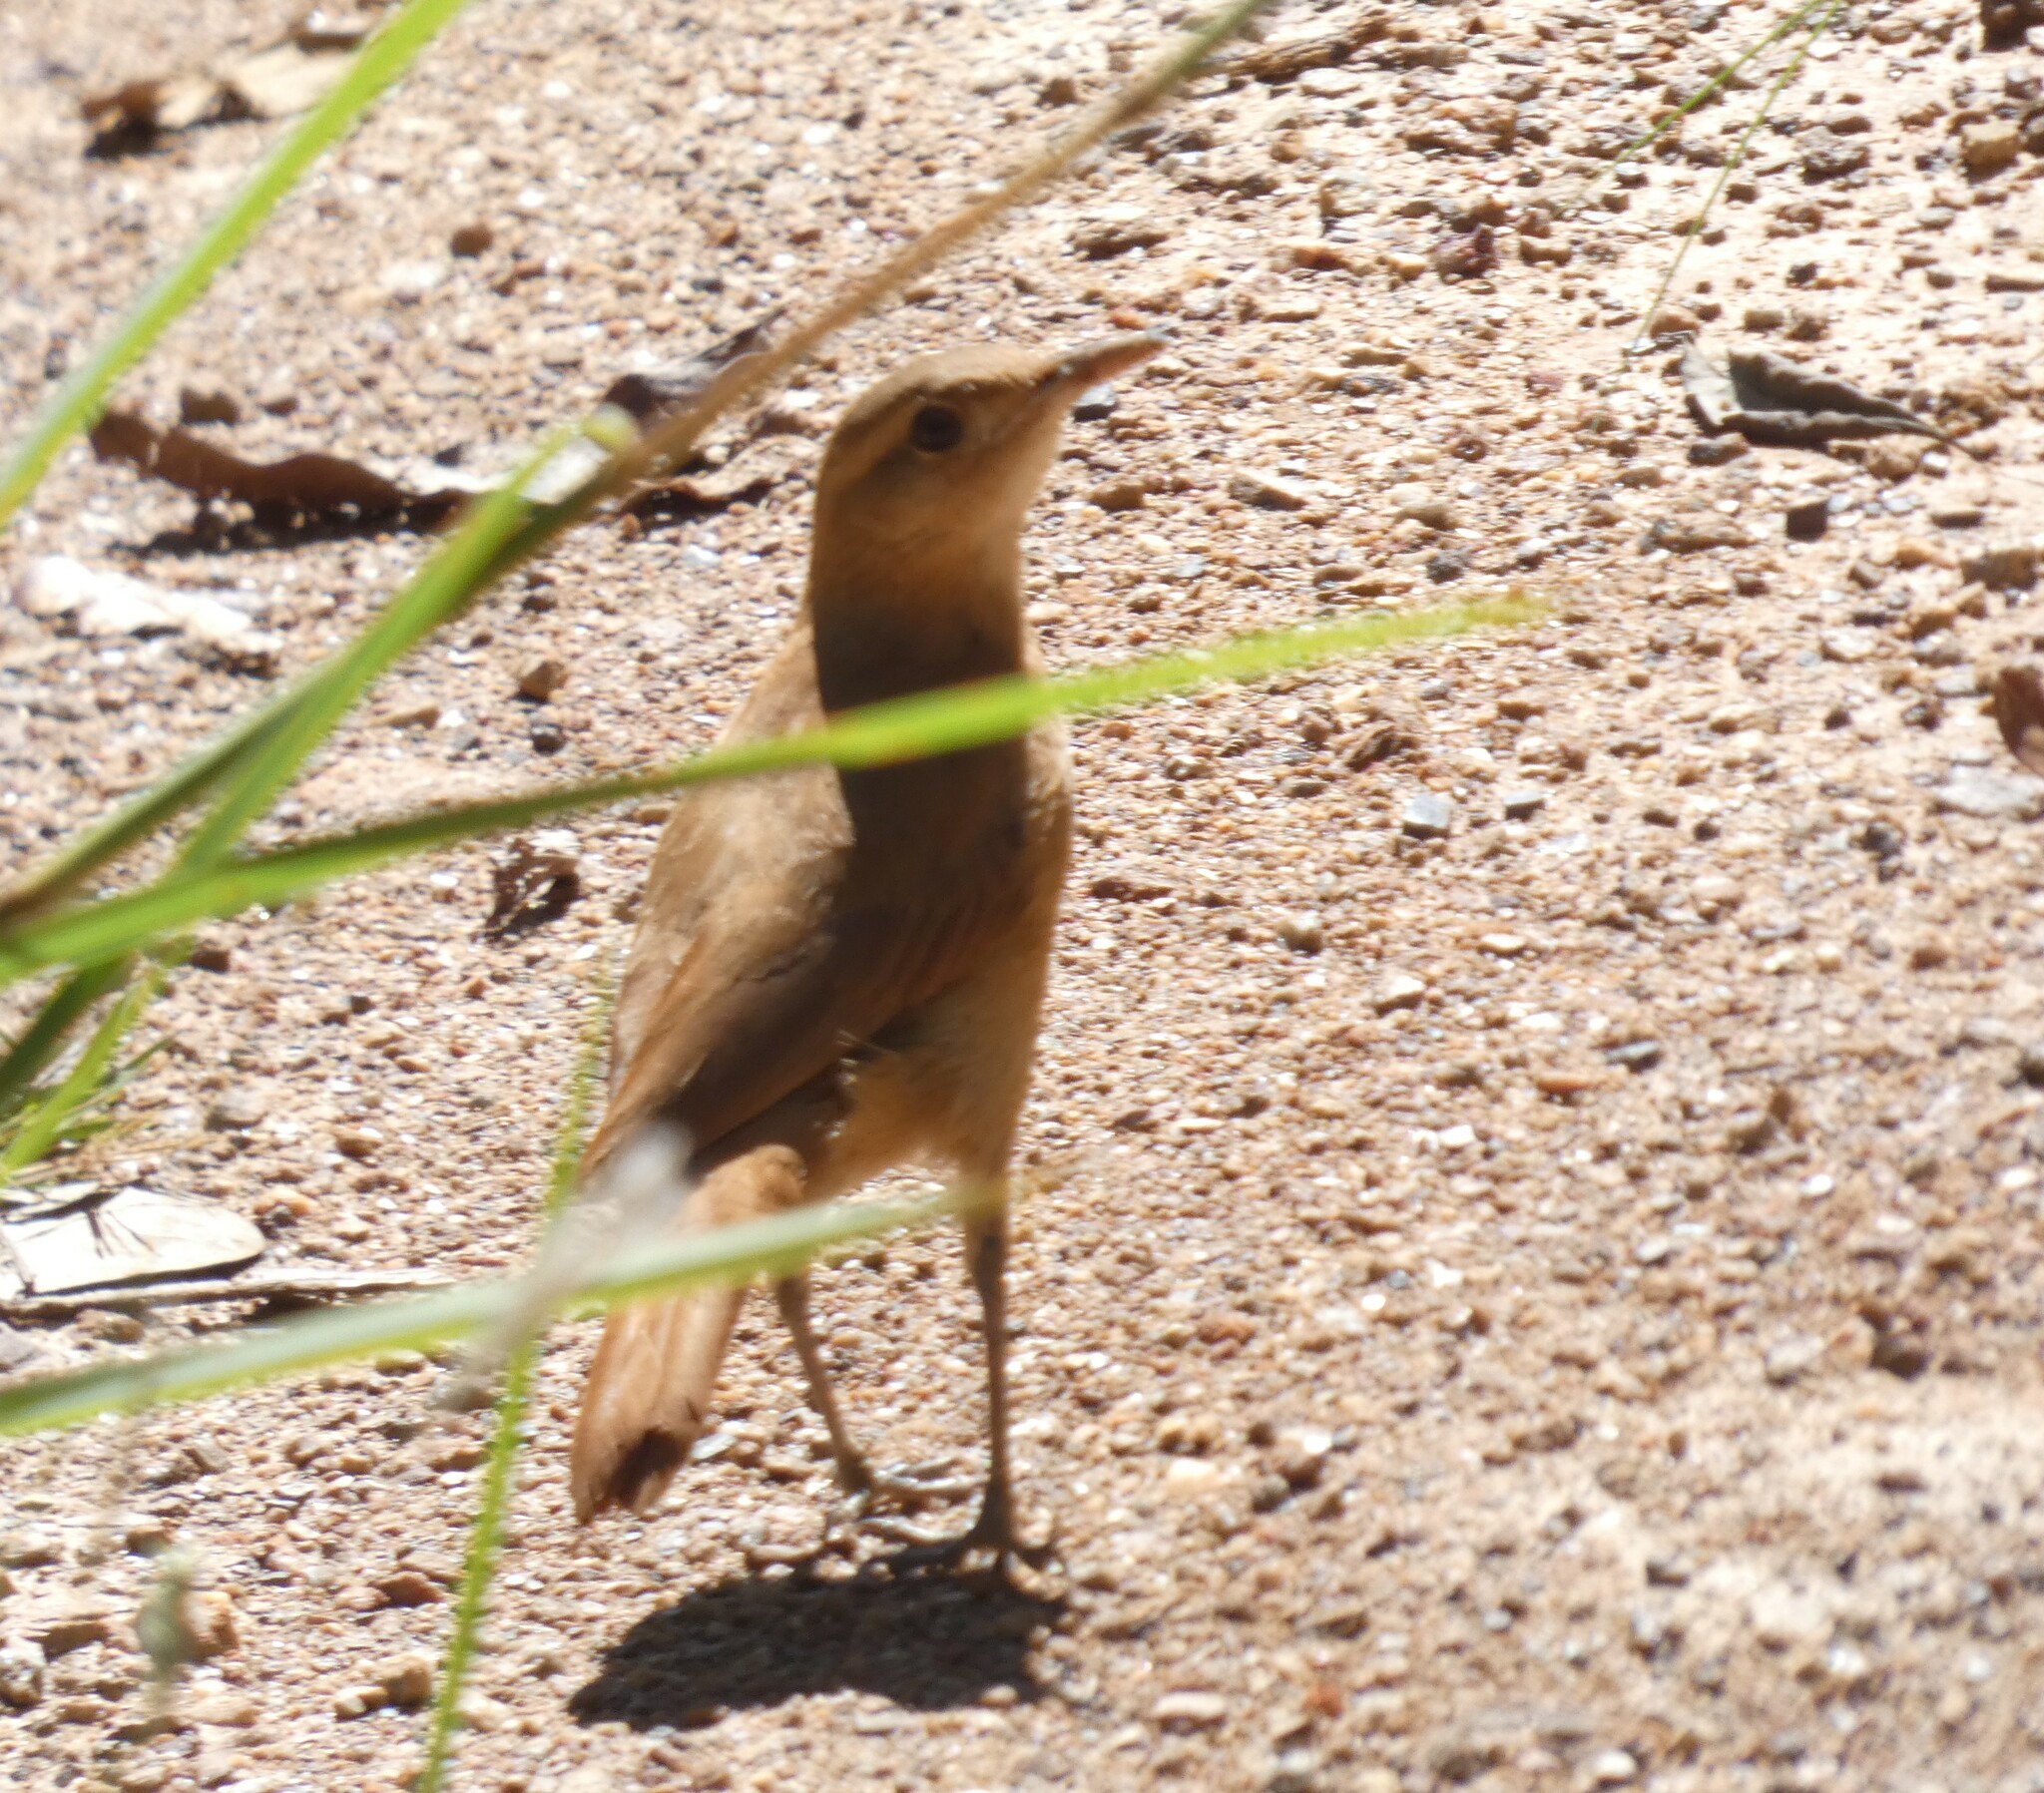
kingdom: Animalia
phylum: Chordata
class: Aves
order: Passeriformes
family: Furnariidae
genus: Furnarius
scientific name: Furnarius rufus
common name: Rufous hornero
